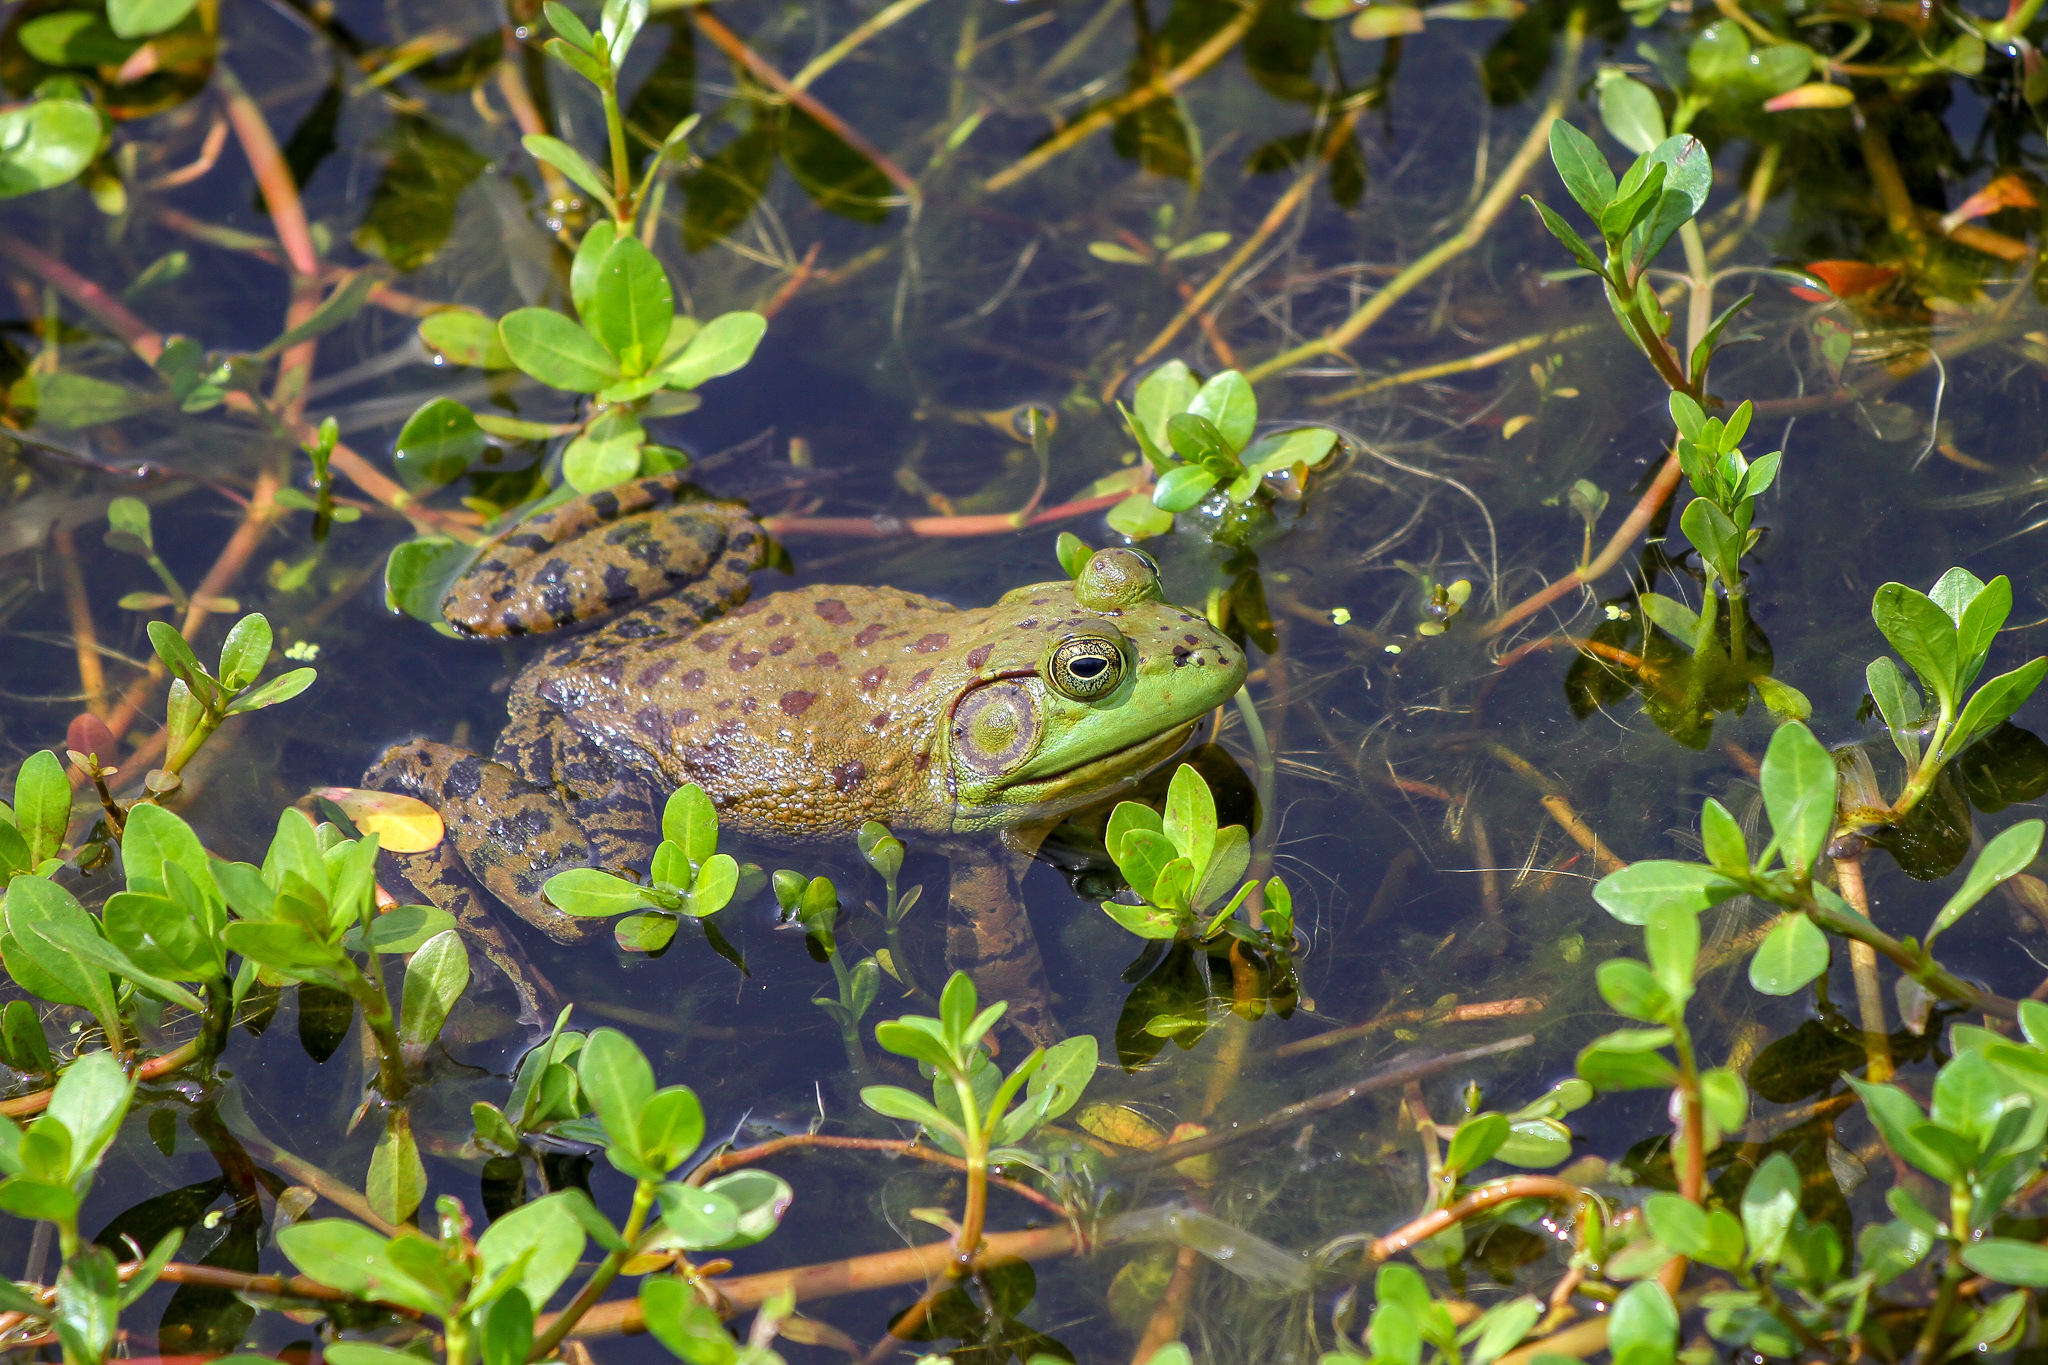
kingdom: Animalia
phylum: Chordata
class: Amphibia
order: Anura
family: Ranidae
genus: Lithobates
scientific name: Lithobates catesbeianus
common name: American bullfrog
